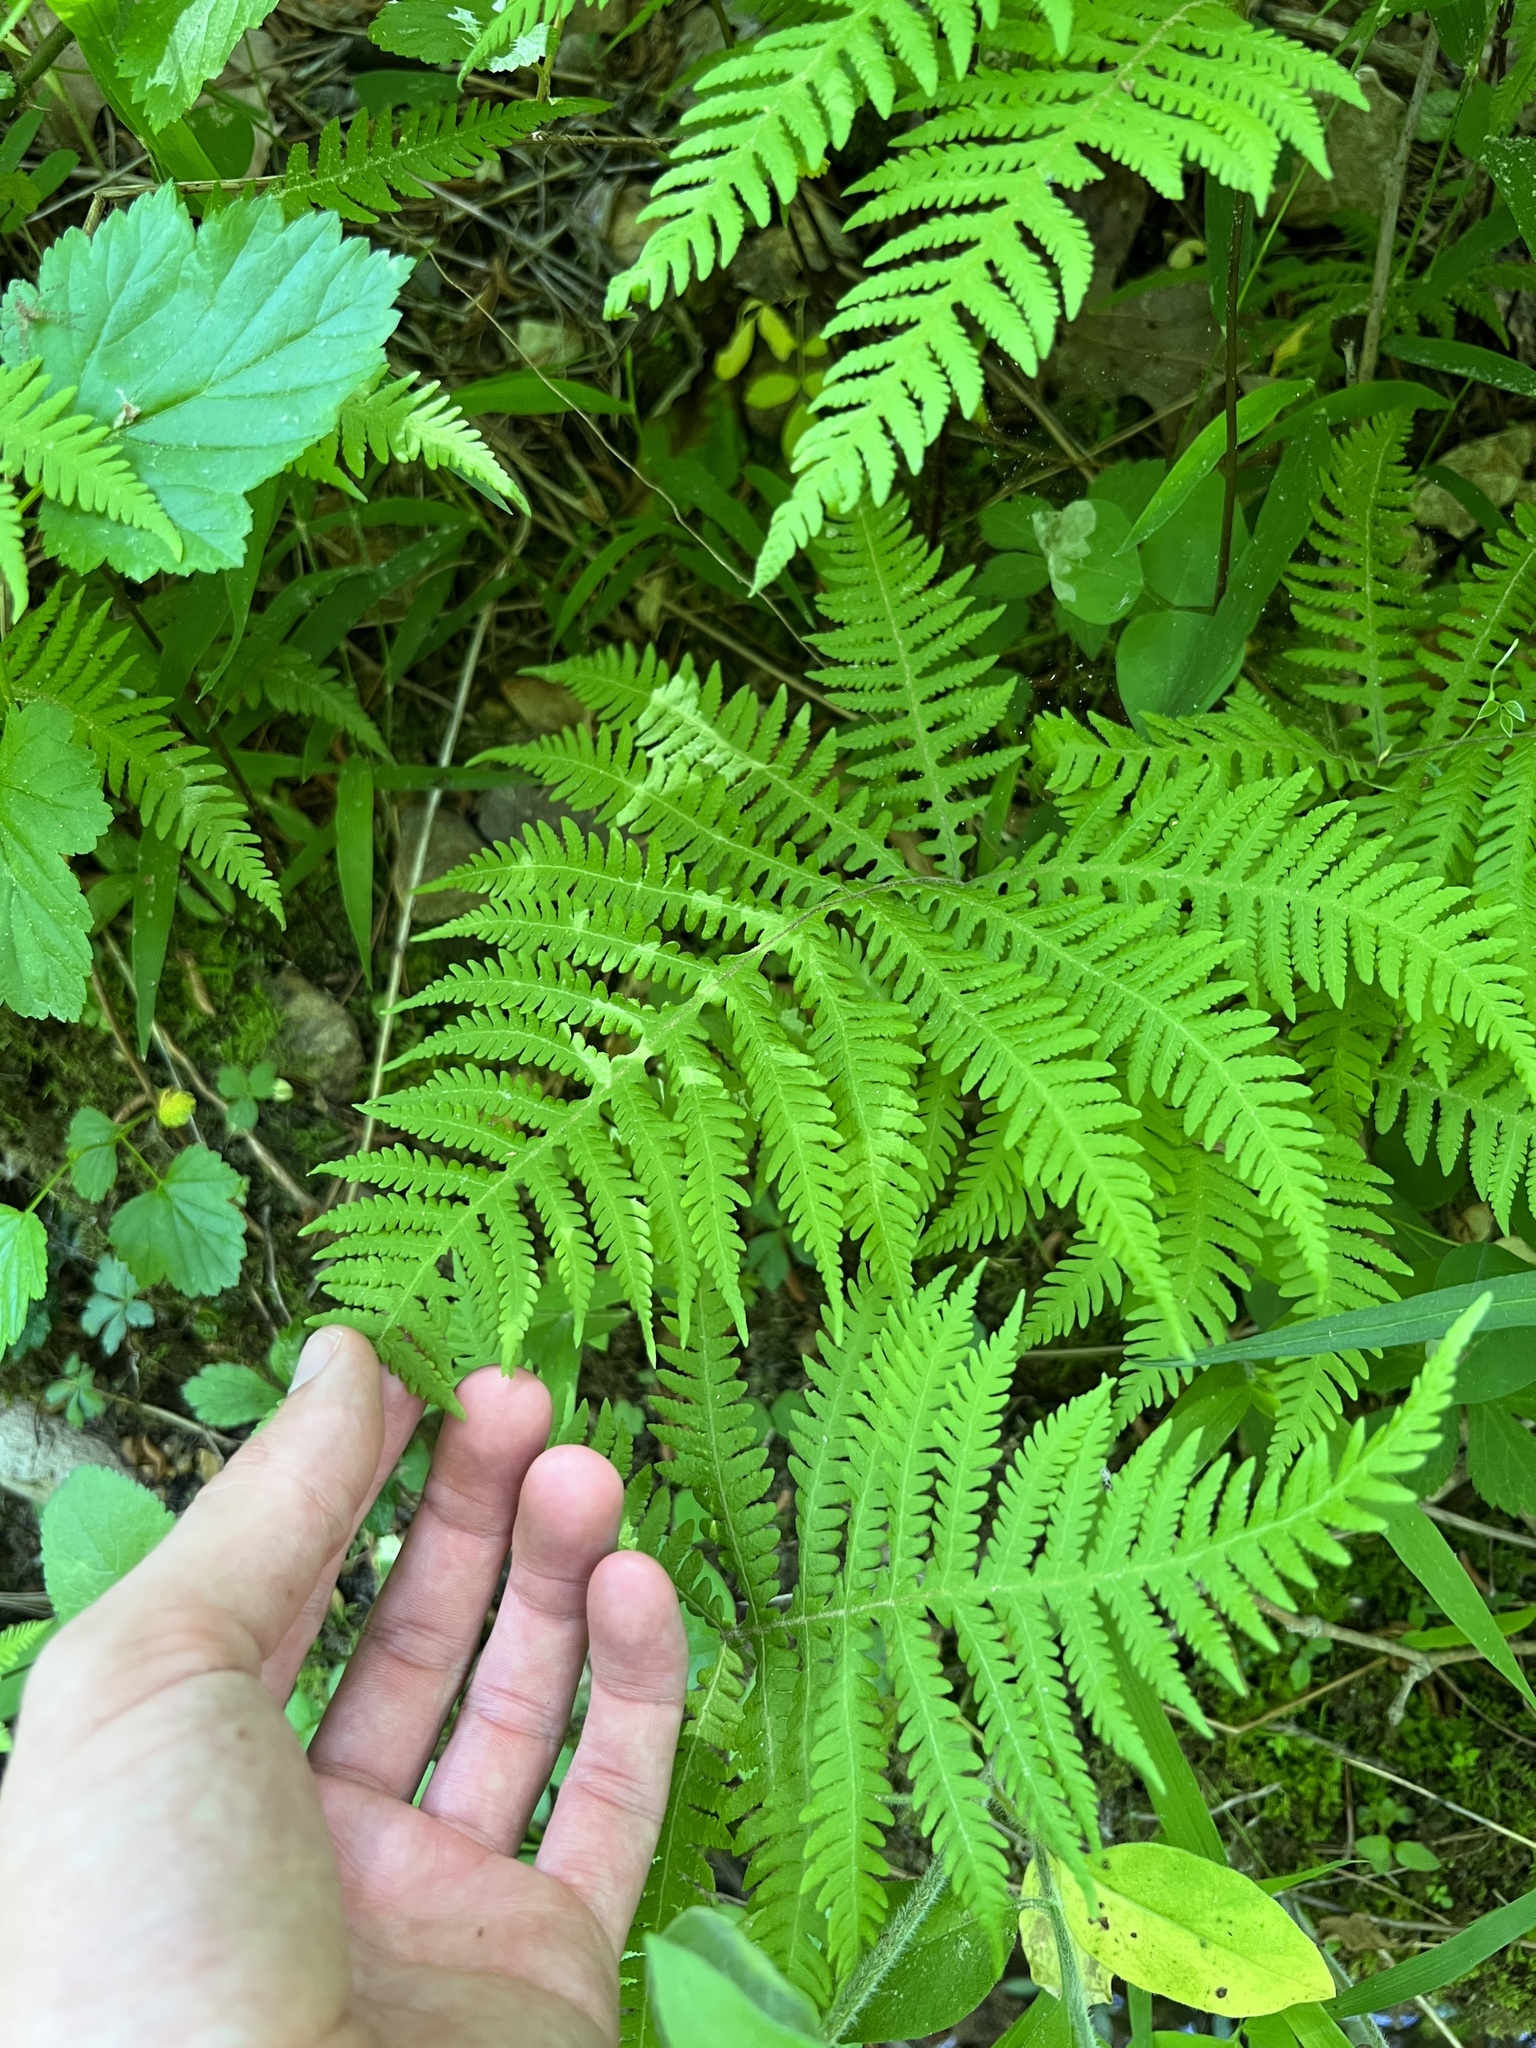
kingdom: Plantae
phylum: Tracheophyta
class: Polypodiopsida
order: Polypodiales
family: Thelypteridaceae
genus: Phegopteris
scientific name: Phegopteris hexagonoptera
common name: Broad beech fern
